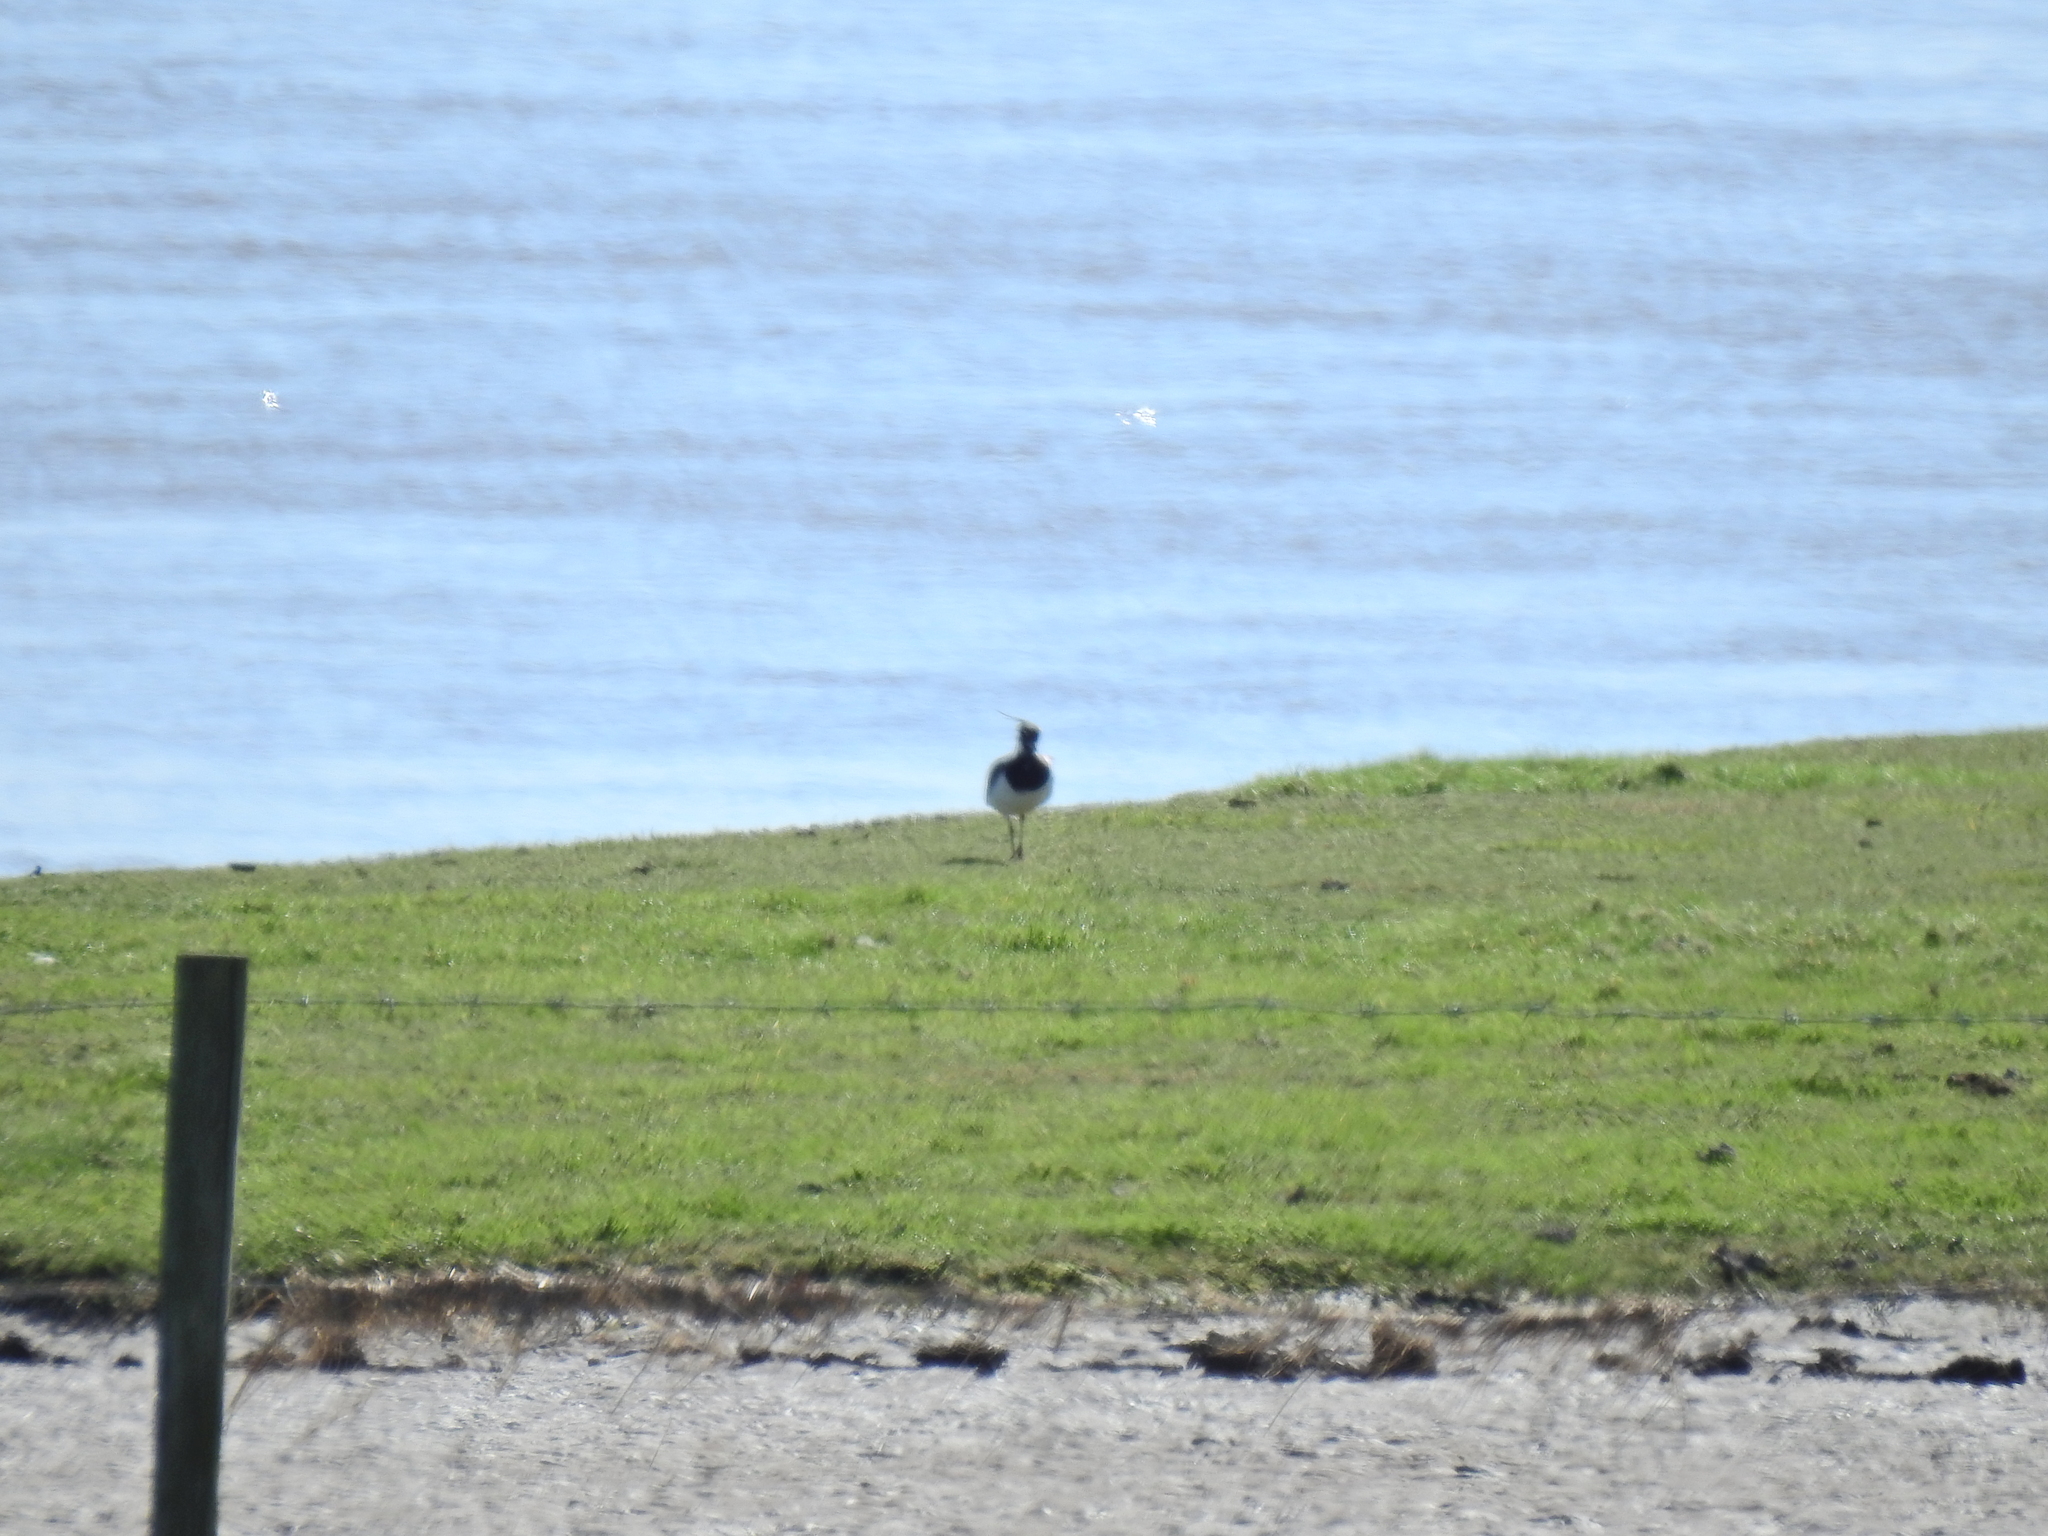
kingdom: Animalia
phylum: Chordata
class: Aves
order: Charadriiformes
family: Charadriidae
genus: Vanellus
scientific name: Vanellus vanellus
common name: Northern lapwing
